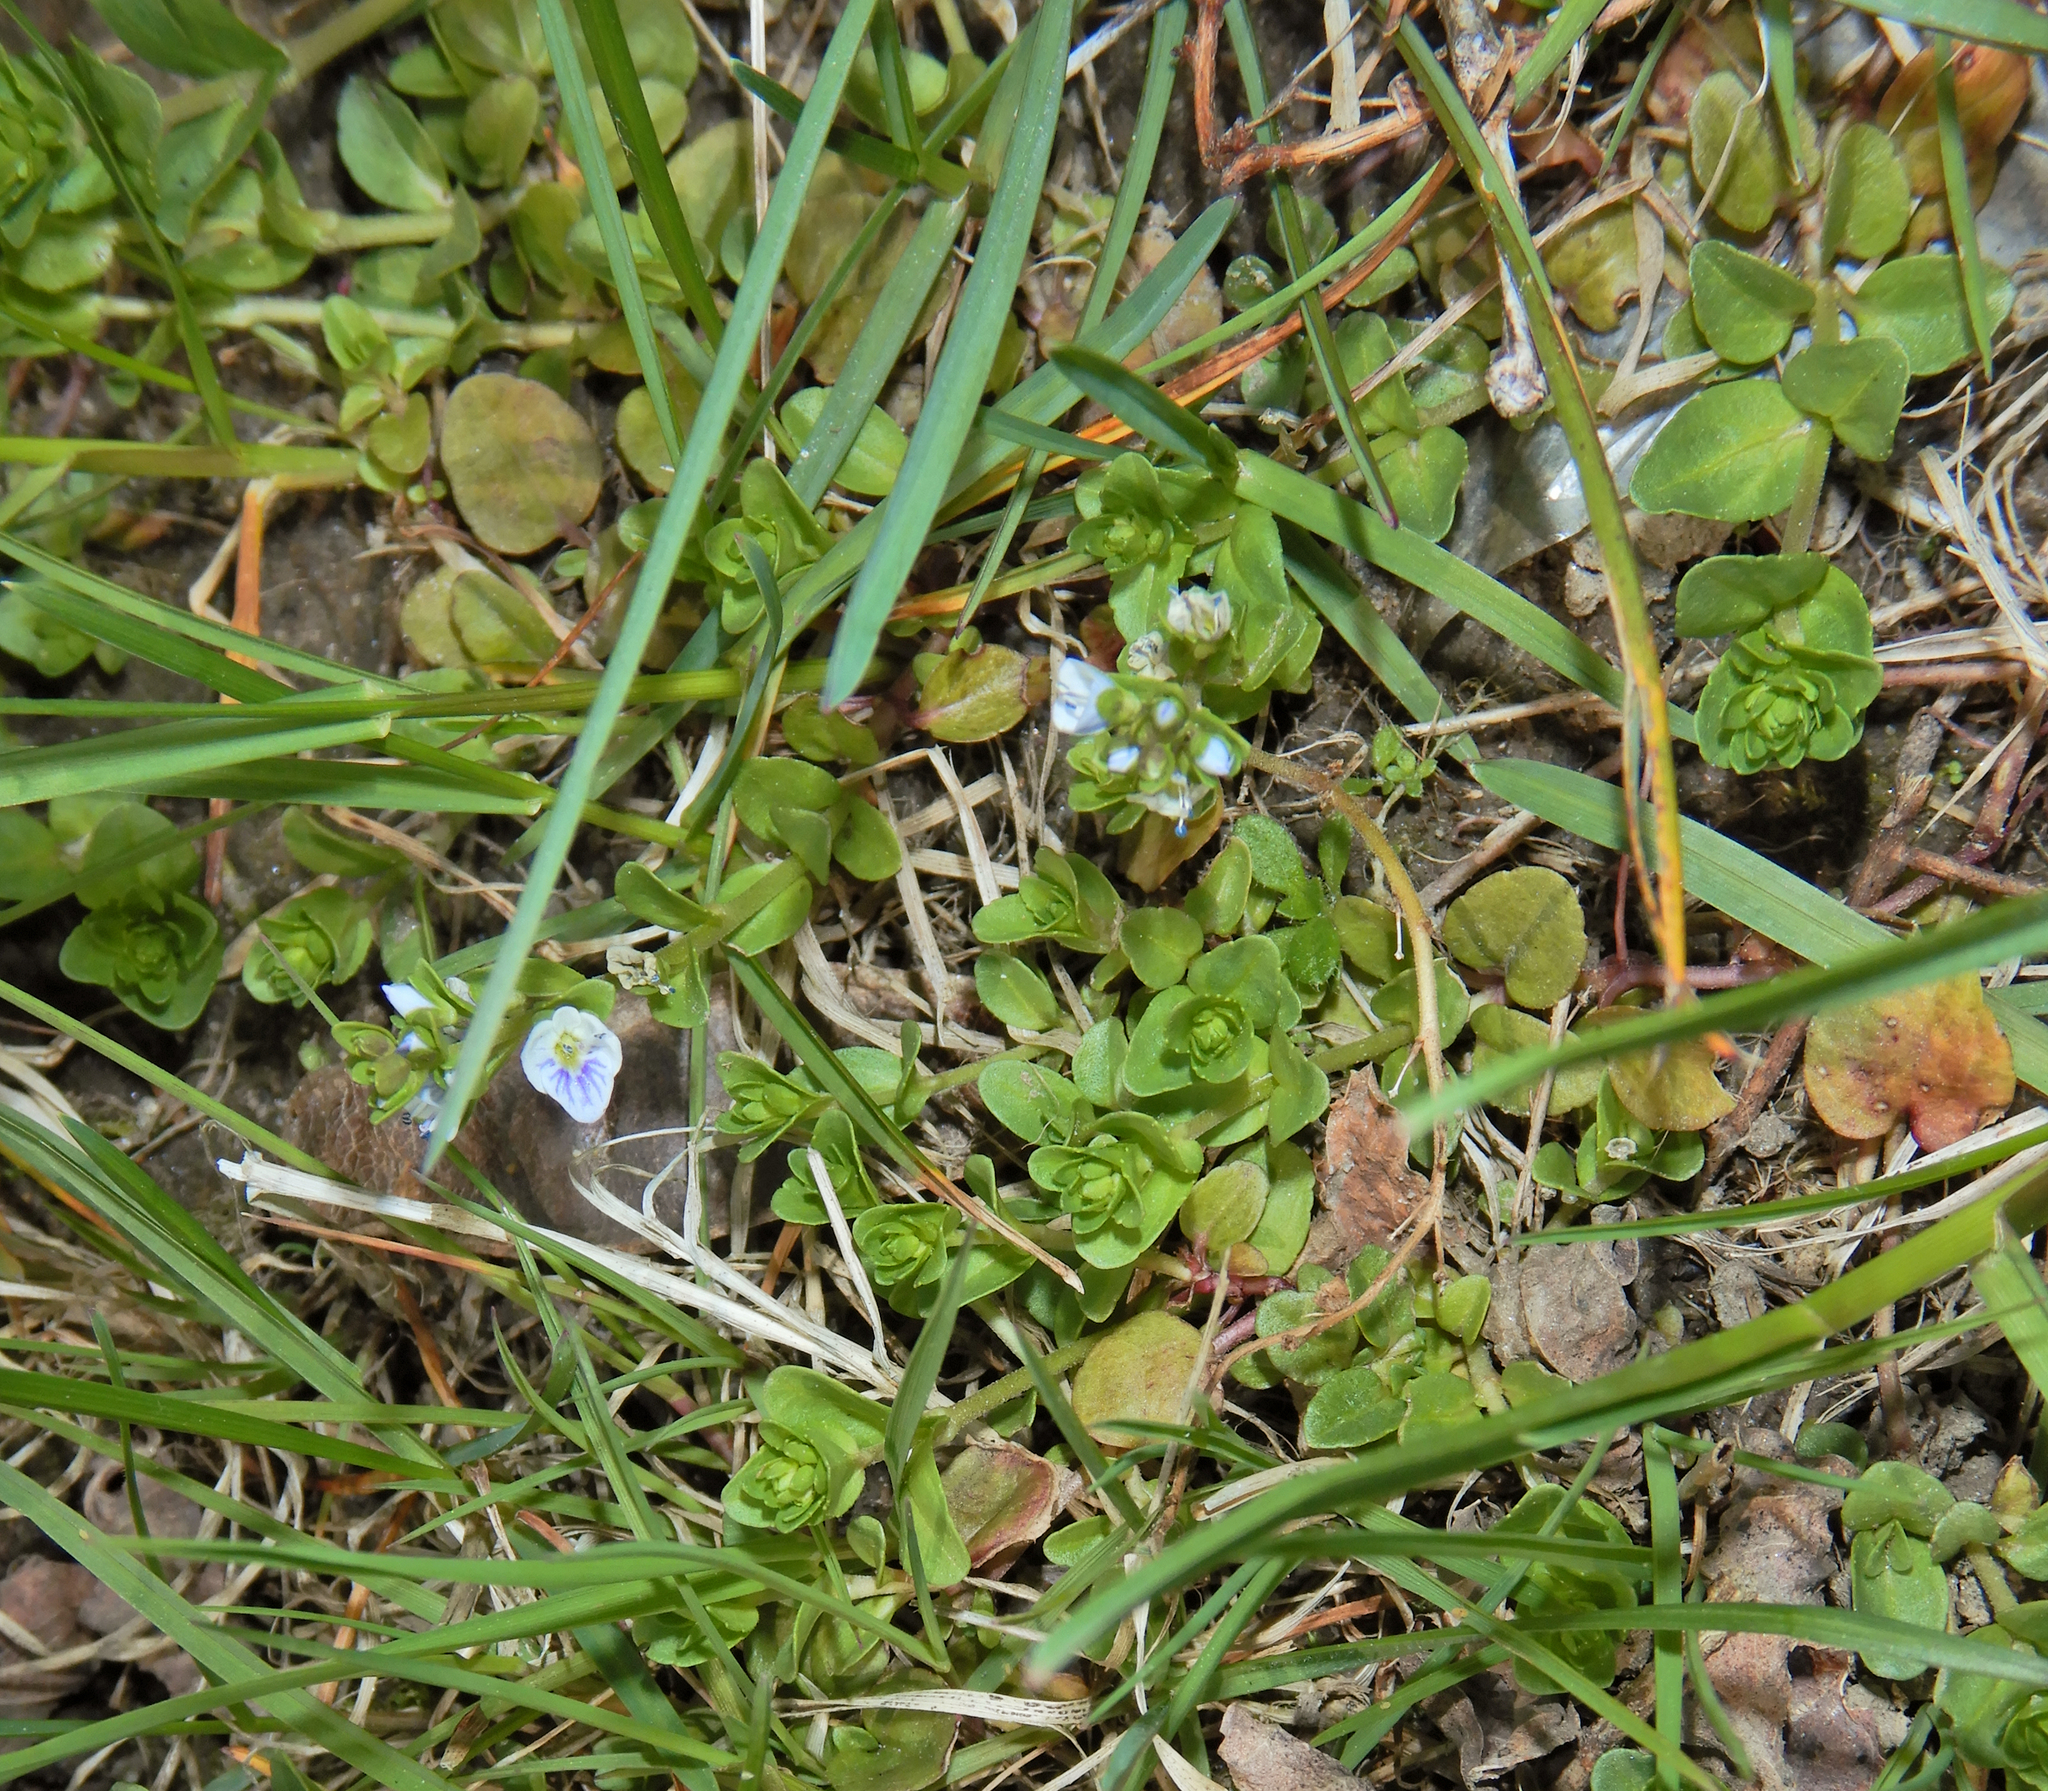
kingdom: Plantae
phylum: Tracheophyta
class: Magnoliopsida
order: Lamiales
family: Plantaginaceae
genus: Veronica
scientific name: Veronica serpyllifolia
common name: Thyme-leaved speedwell
